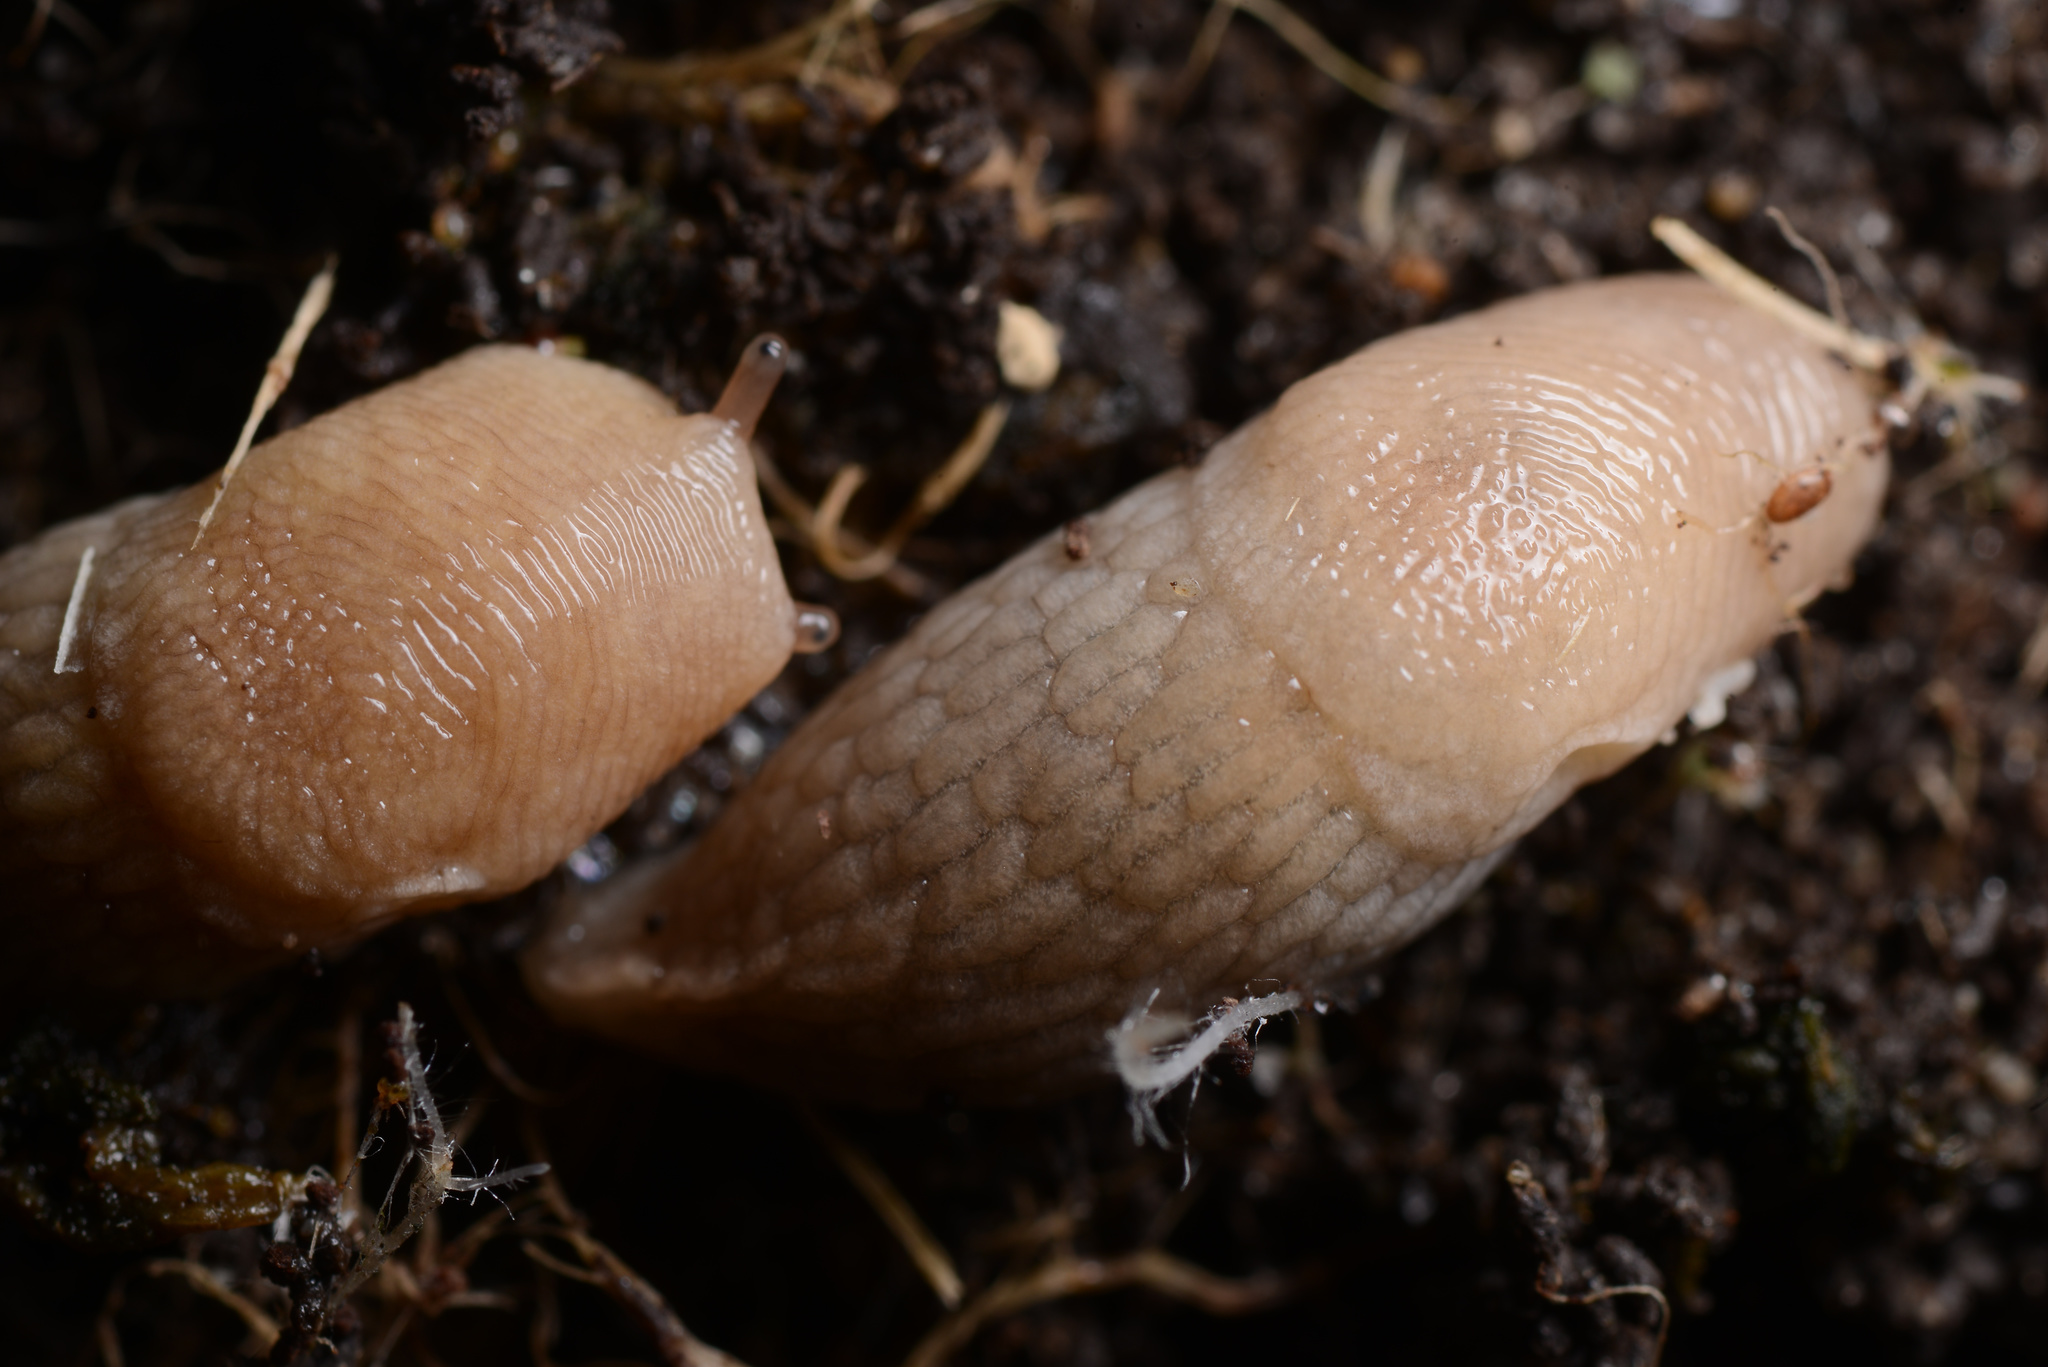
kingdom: Animalia
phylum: Mollusca
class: Gastropoda
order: Stylommatophora
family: Agriolimacidae
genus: Deroceras
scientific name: Deroceras reticulatum
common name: Gray field slug
